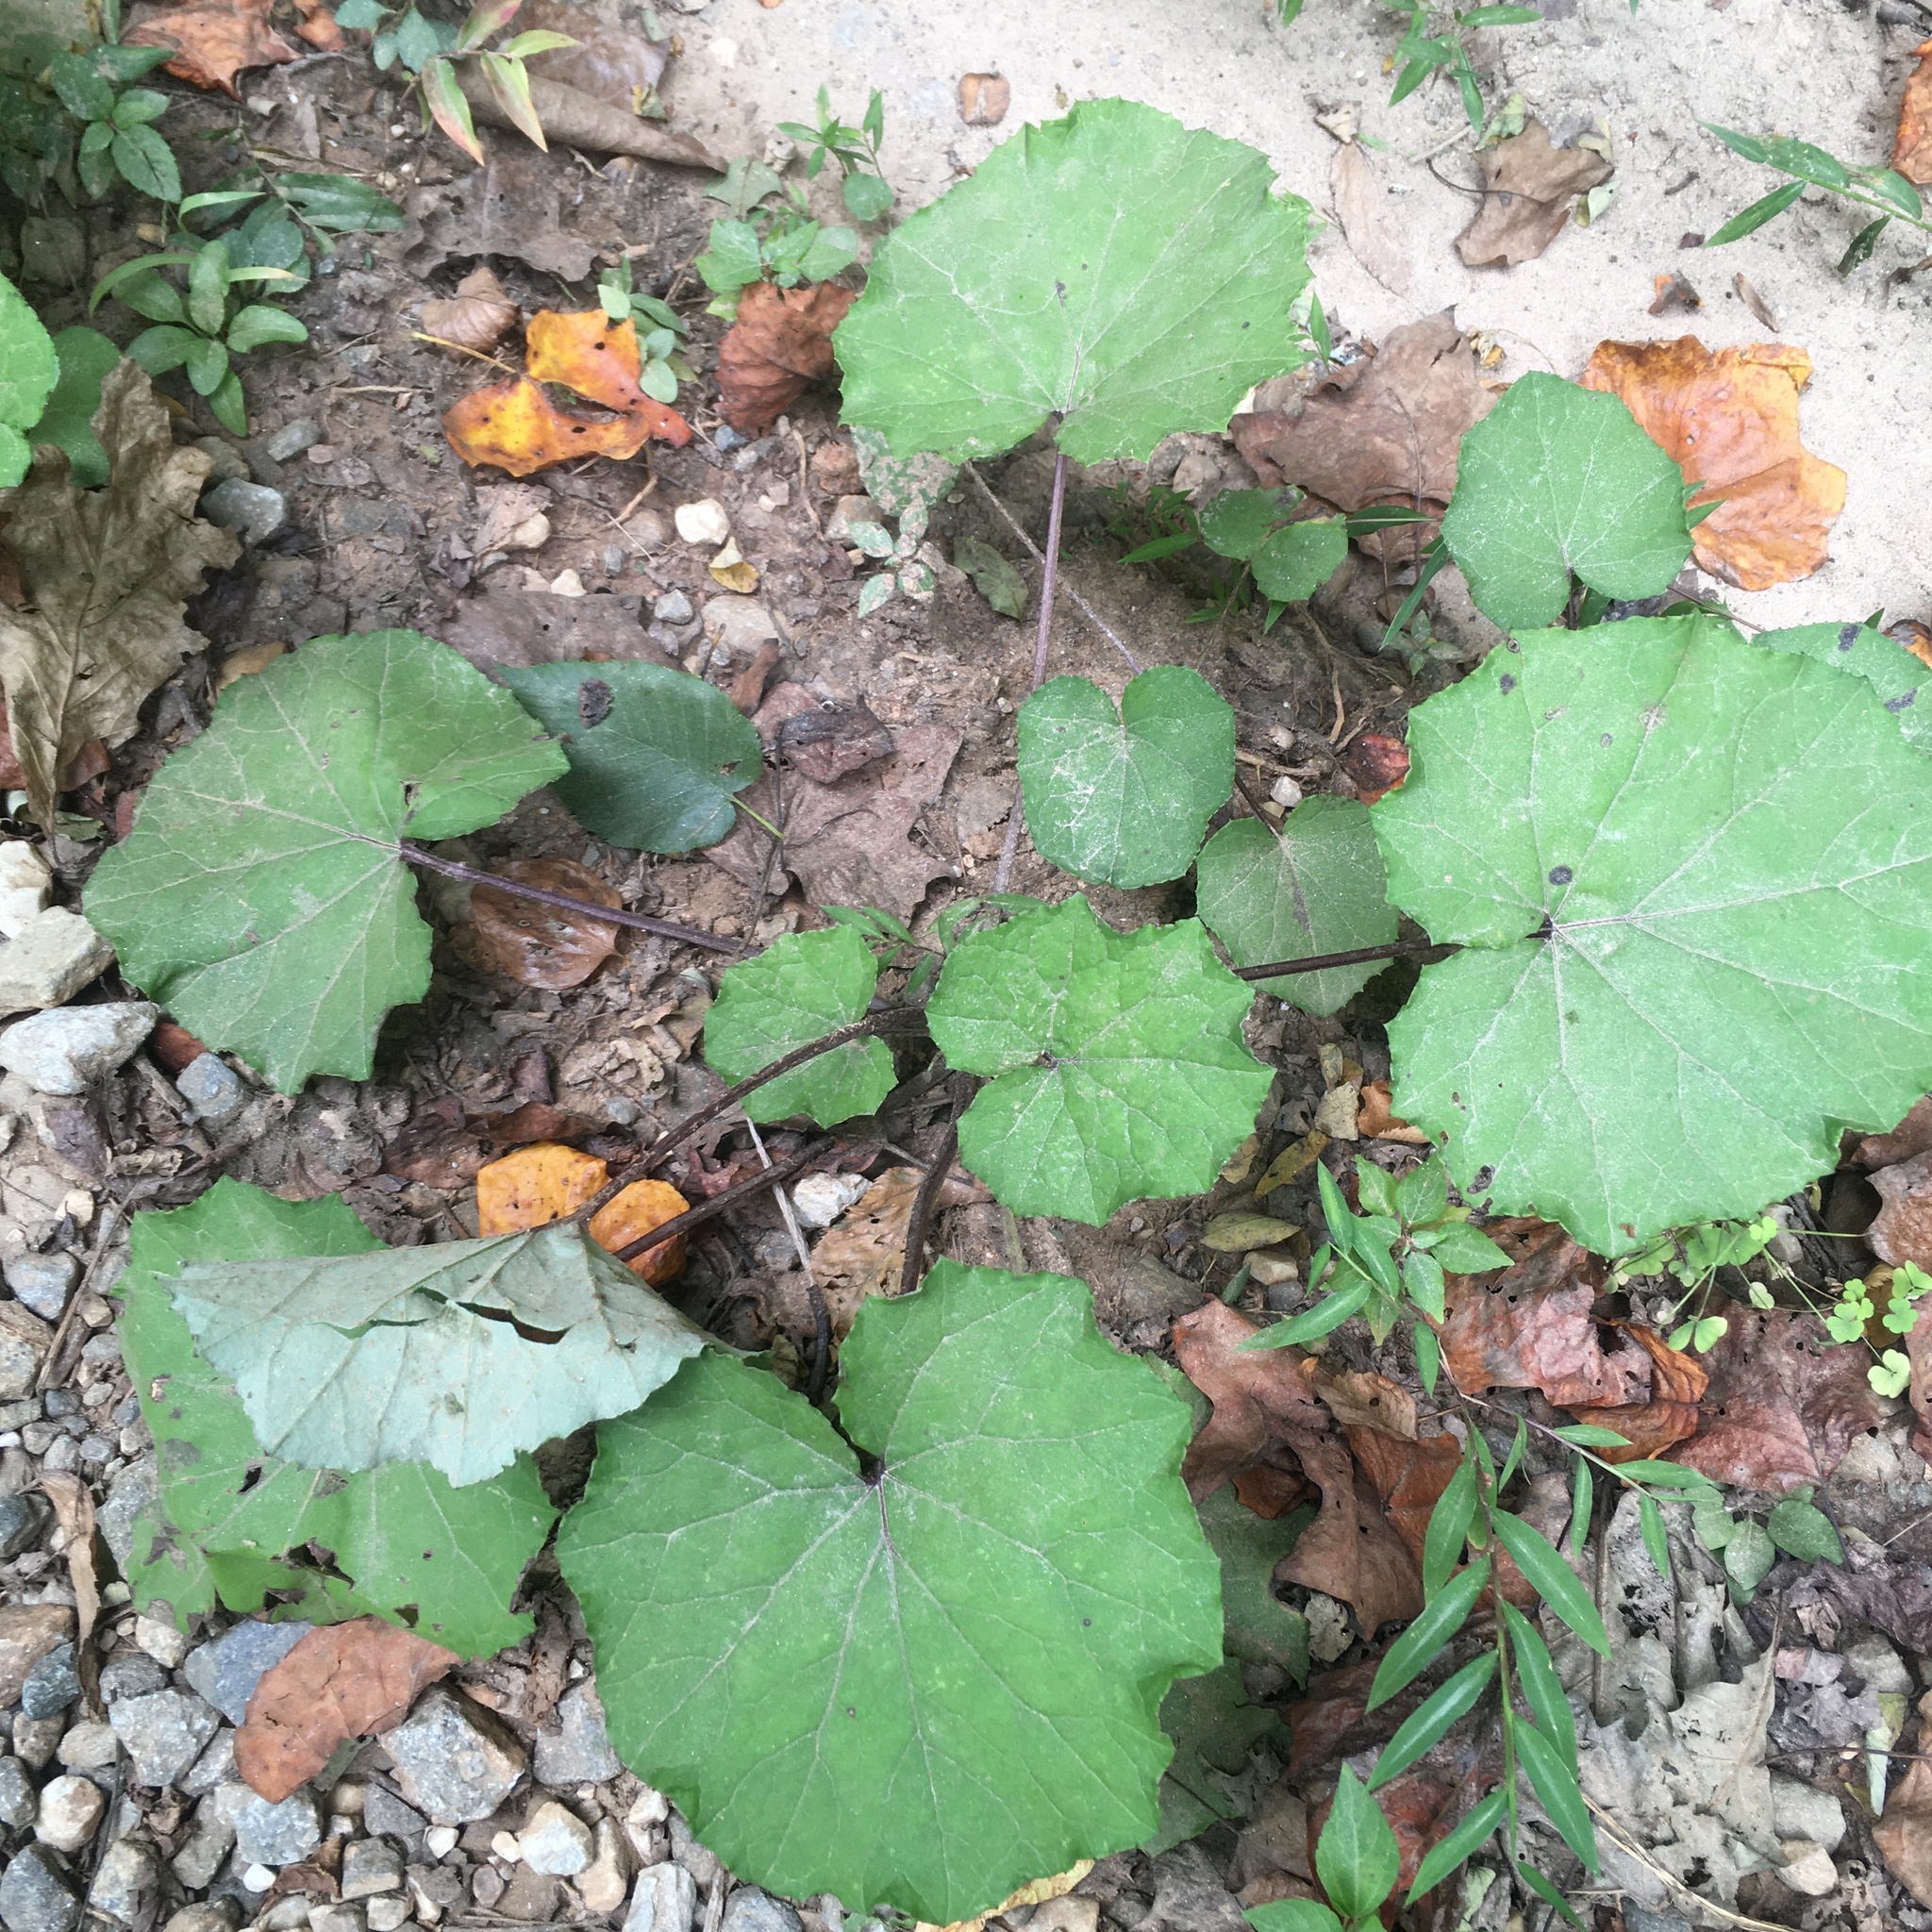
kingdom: Plantae
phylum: Tracheophyta
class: Magnoliopsida
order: Asterales
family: Asteraceae
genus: Tussilago
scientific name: Tussilago farfara
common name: Coltsfoot
